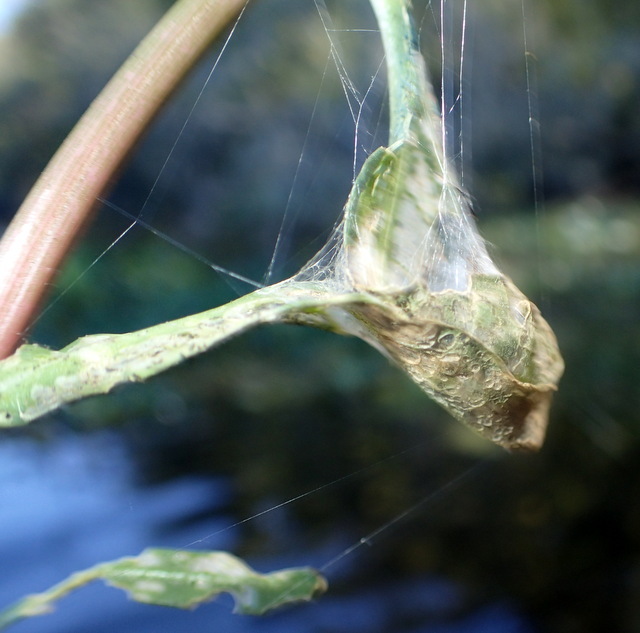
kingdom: Animalia
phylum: Arthropoda
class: Arachnida
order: Araneae
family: Araneidae
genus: Larinioides
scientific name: Larinioides cornutus
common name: Furrow orbweaver
